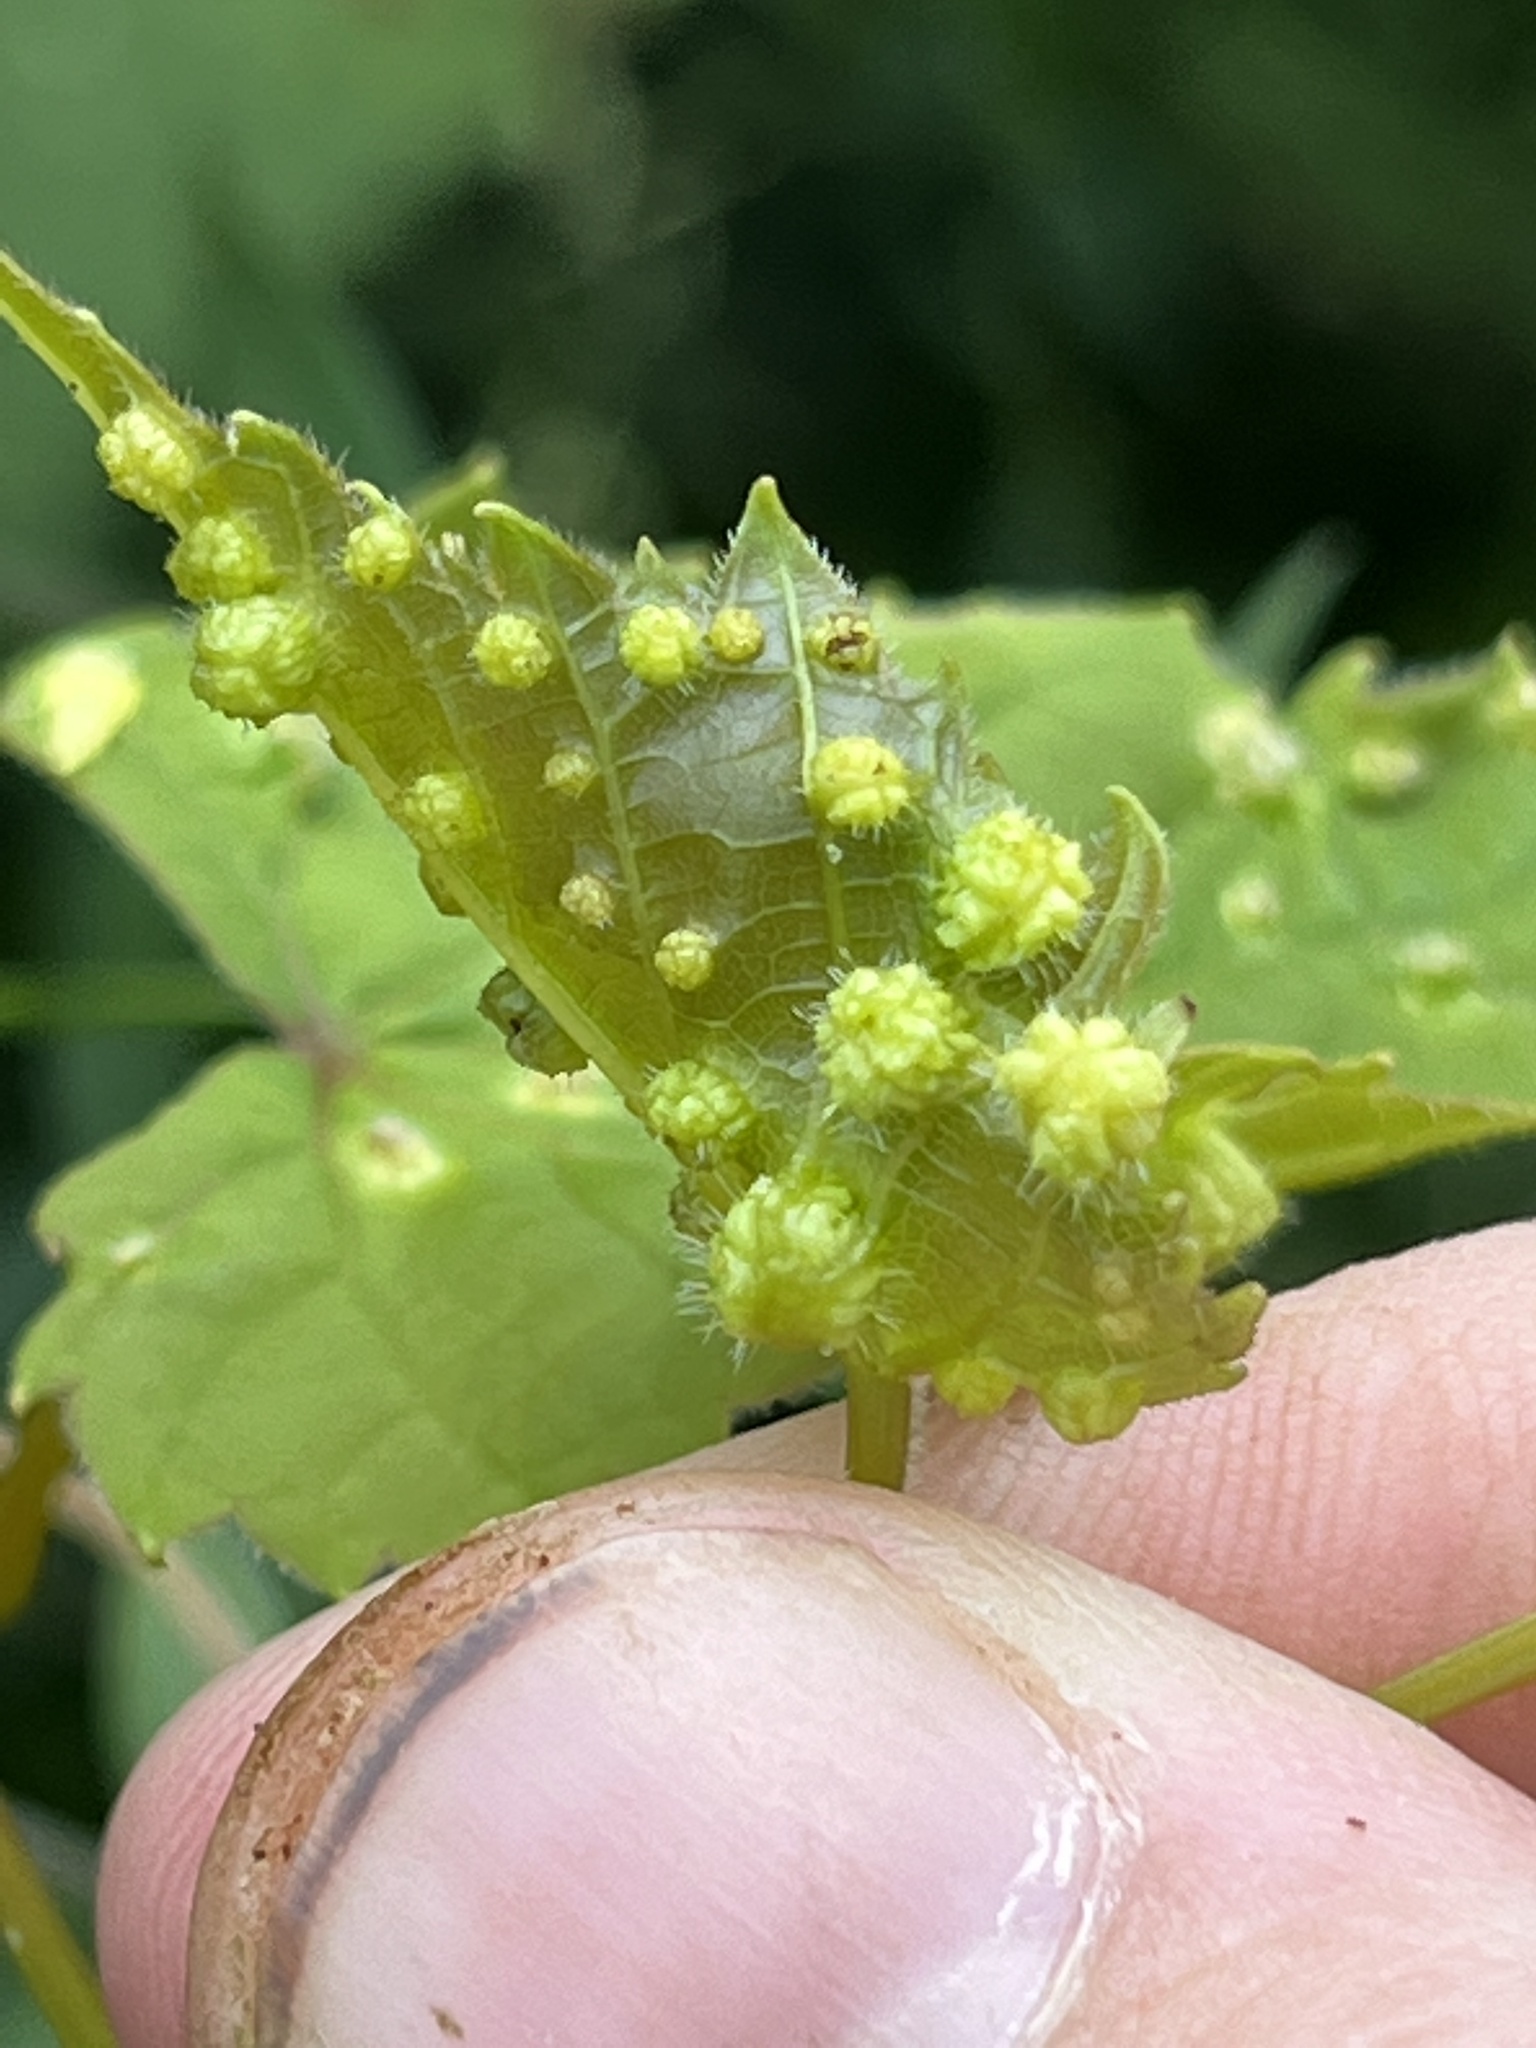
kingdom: Animalia
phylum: Arthropoda
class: Insecta
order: Hemiptera
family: Phylloxeridae
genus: Daktulosphaira
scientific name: Daktulosphaira vitifoliae
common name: Grape phylloxera
